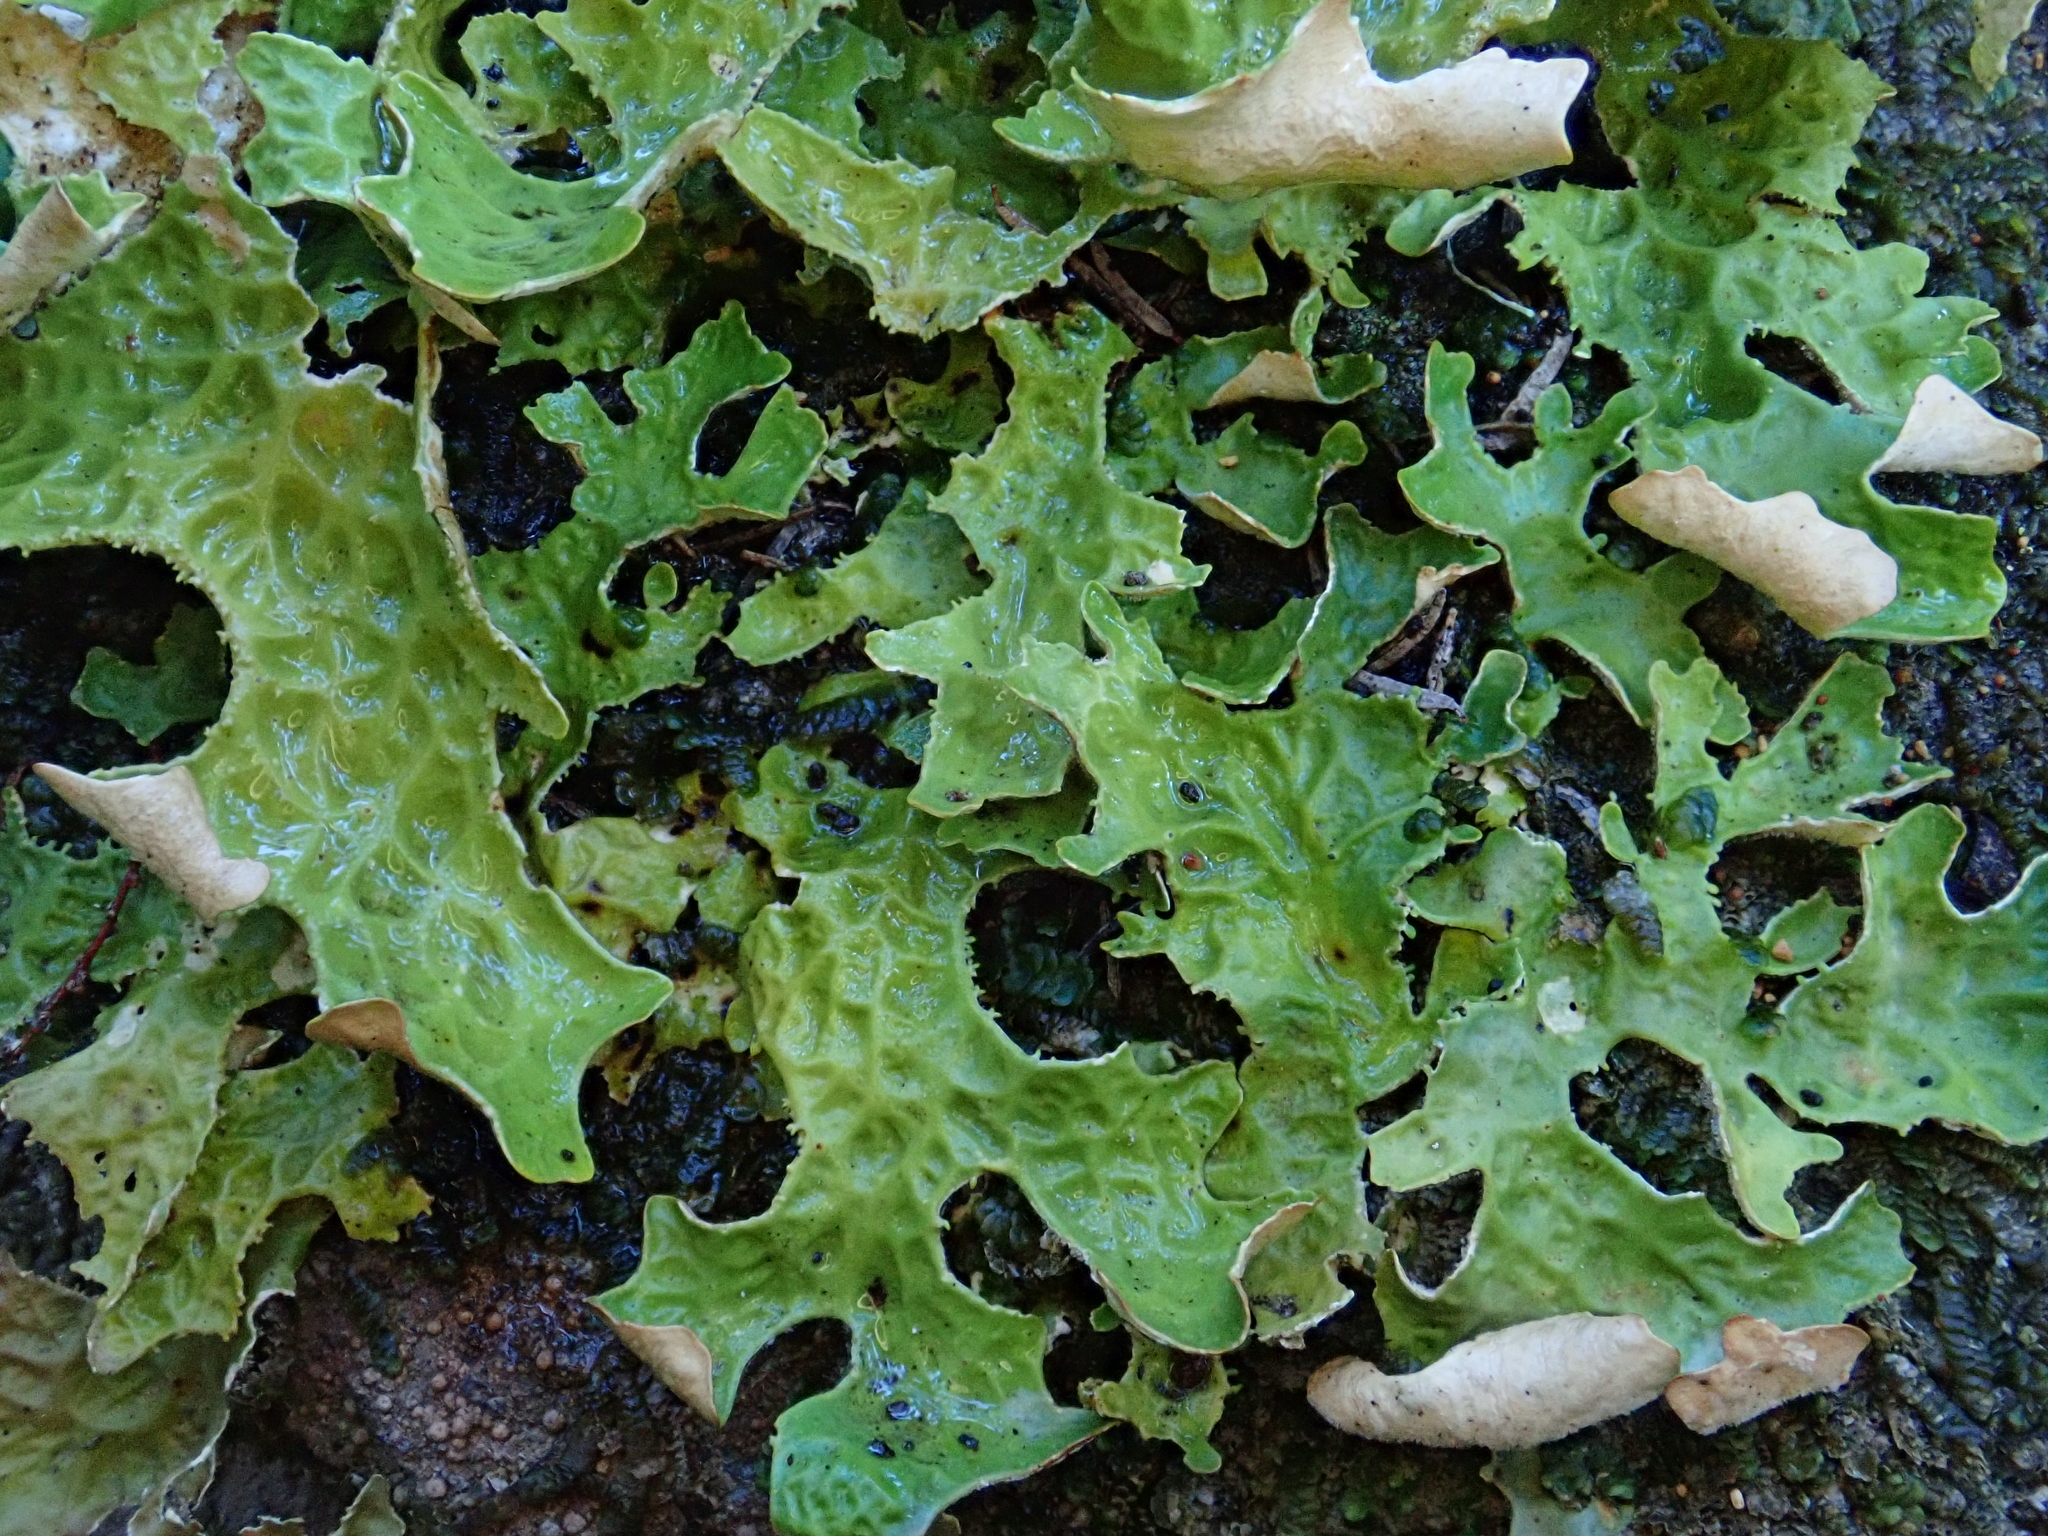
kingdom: Fungi
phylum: Ascomycota
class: Lecanoromycetes
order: Peltigerales
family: Lobariaceae
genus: Lobaria
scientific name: Lobaria pulmonaria
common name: Lungwort
